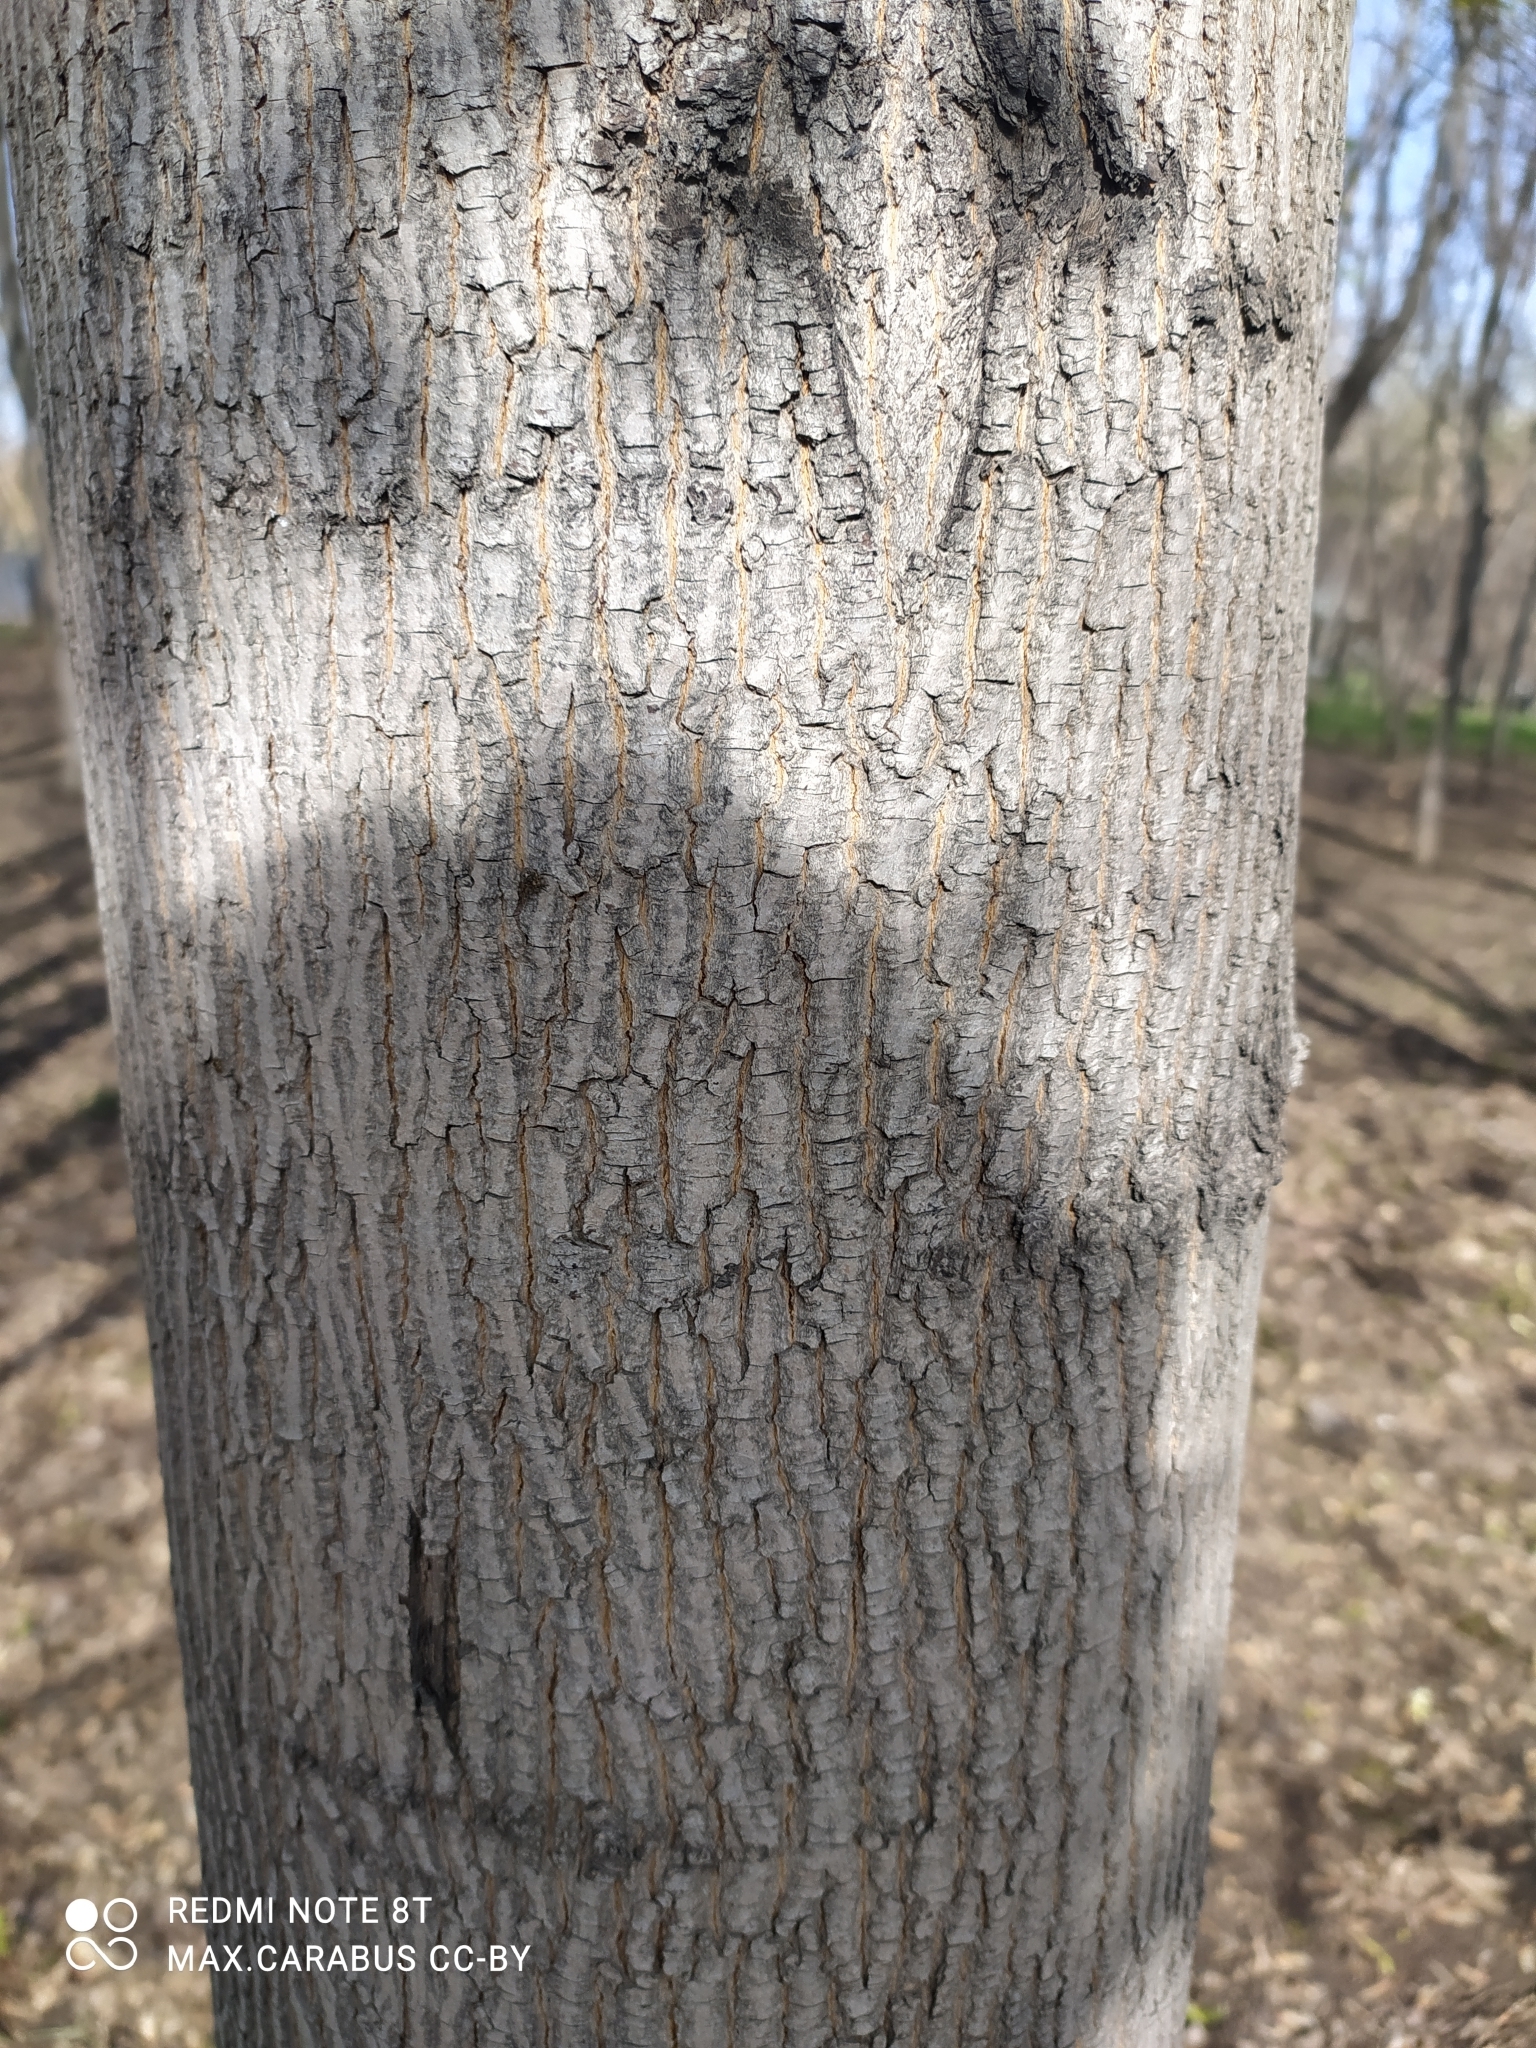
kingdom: Plantae
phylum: Tracheophyta
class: Magnoliopsida
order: Sapindales
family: Sapindaceae
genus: Acer
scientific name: Acer platanoides
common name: Norway maple
